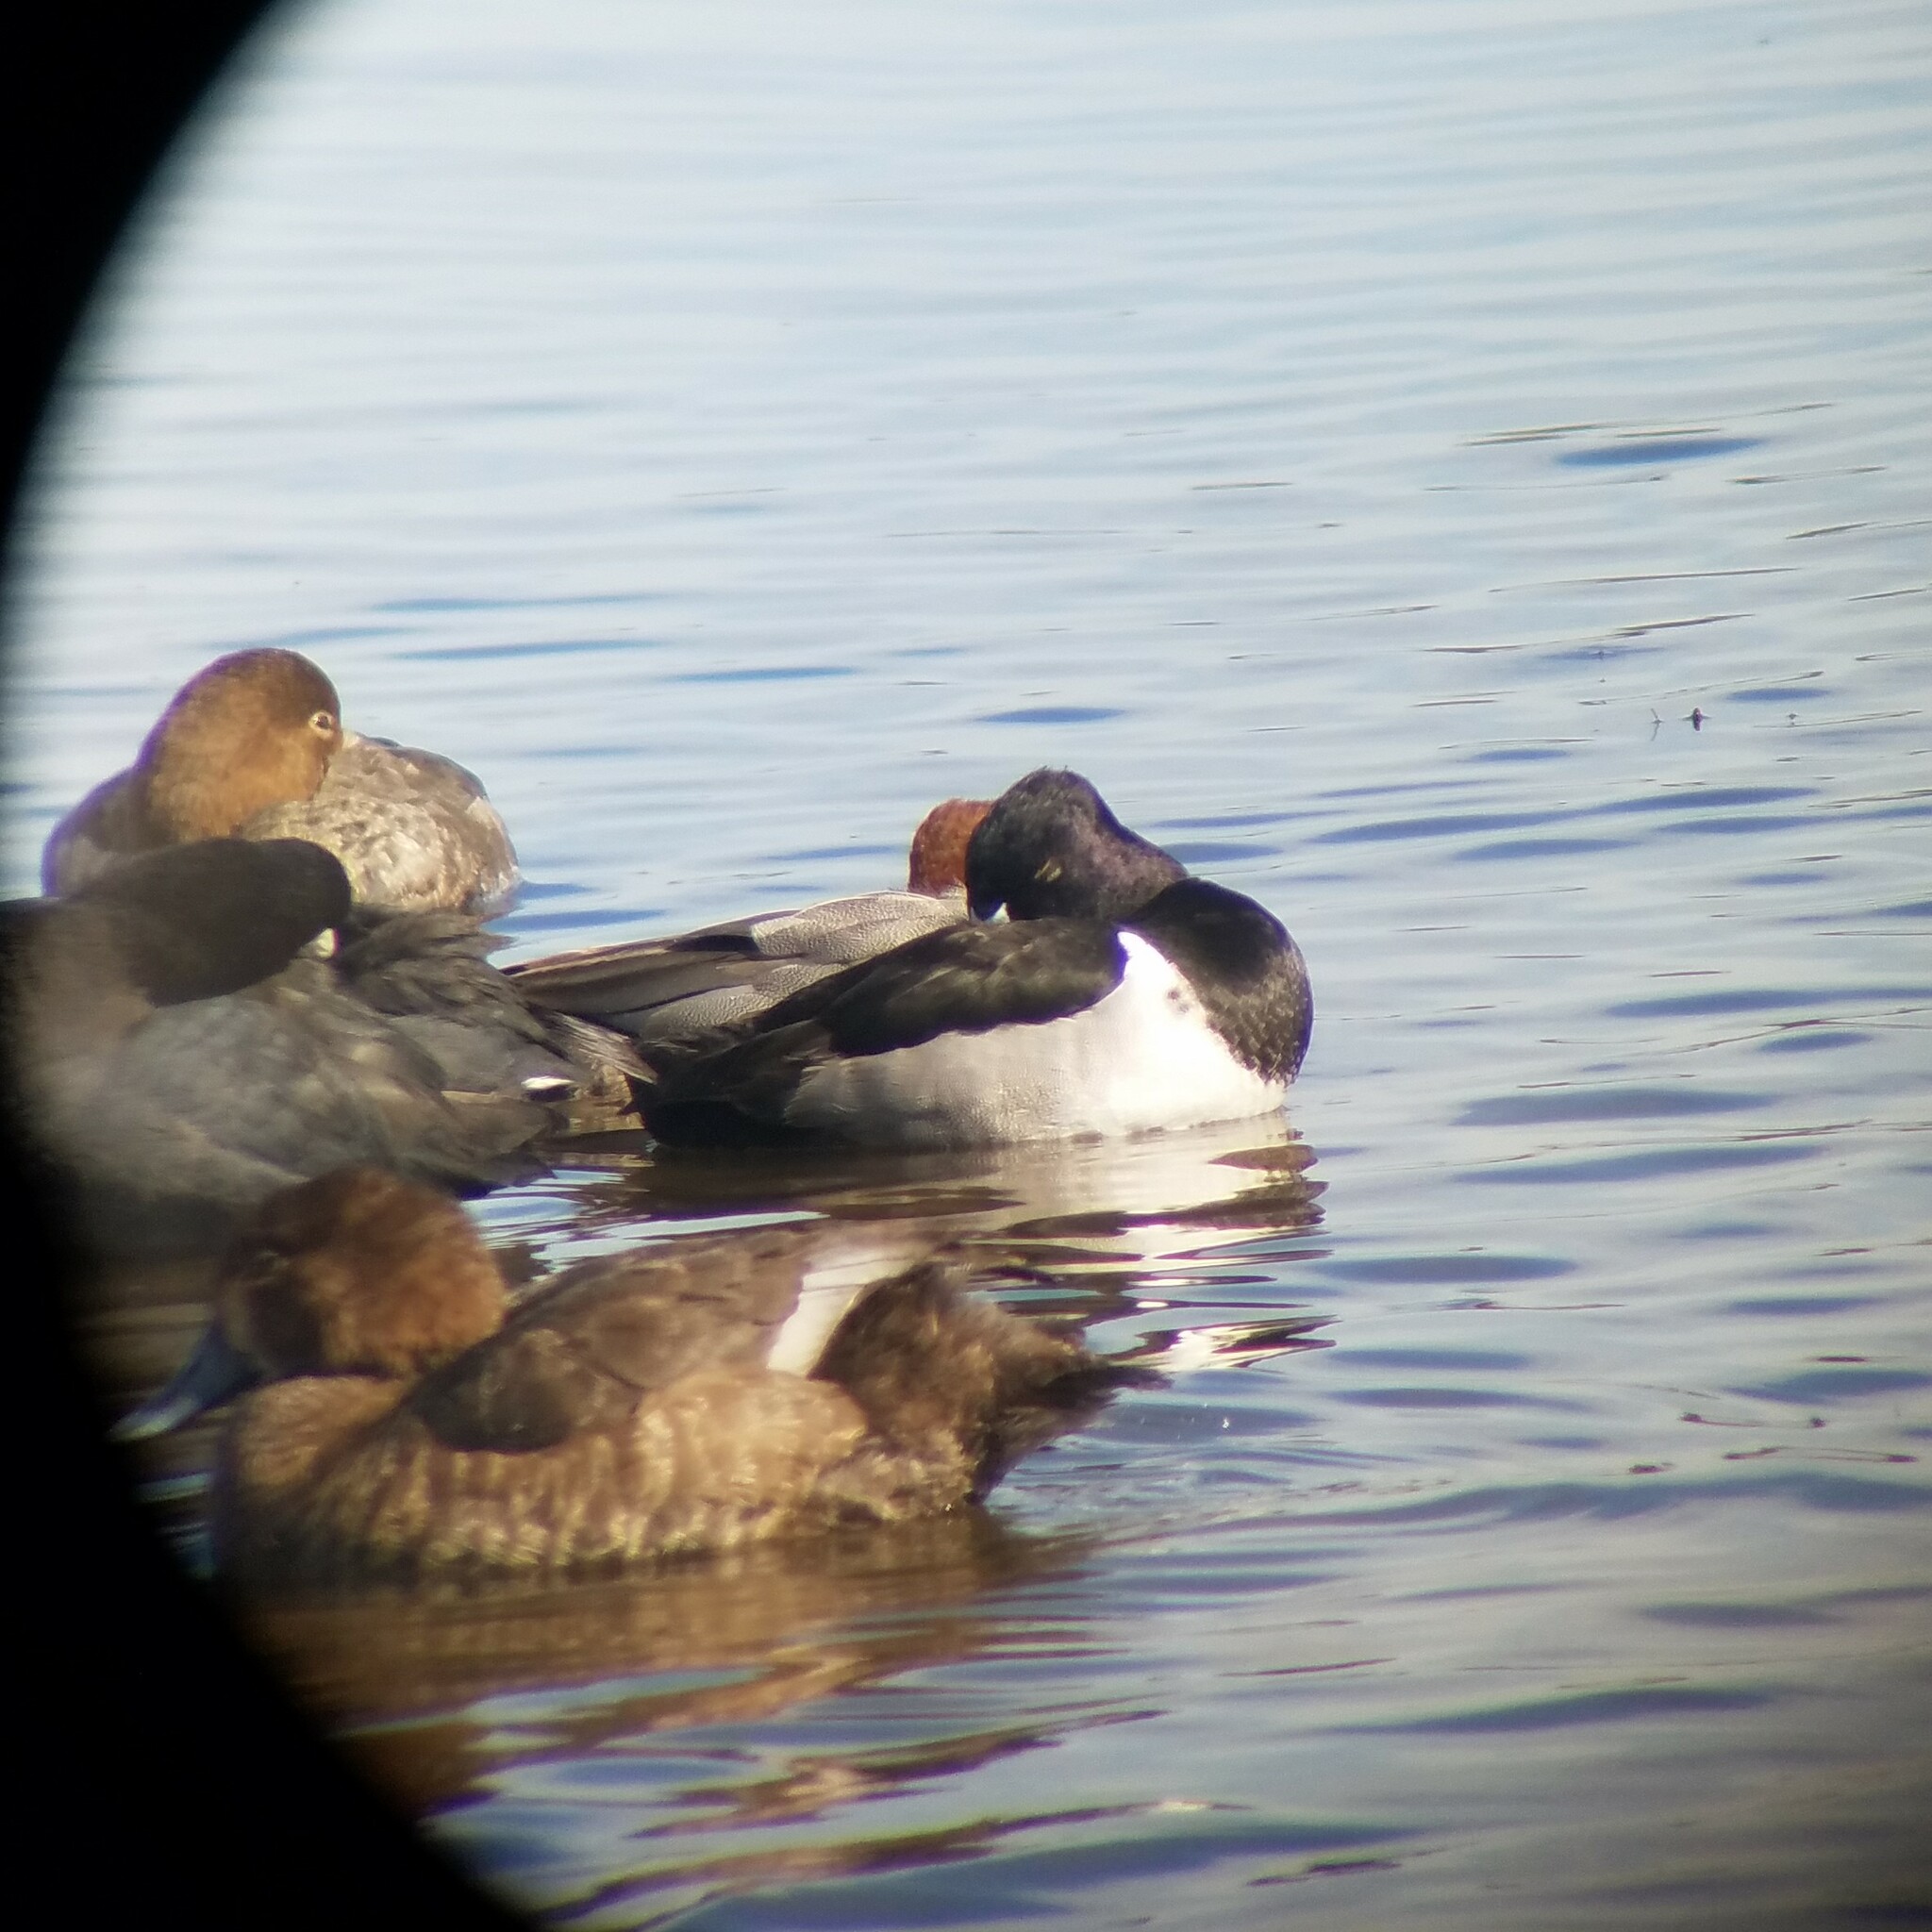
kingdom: Animalia
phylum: Chordata
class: Aves
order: Anseriformes
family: Anatidae
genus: Aythya
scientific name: Aythya collaris
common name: Ring-necked duck
